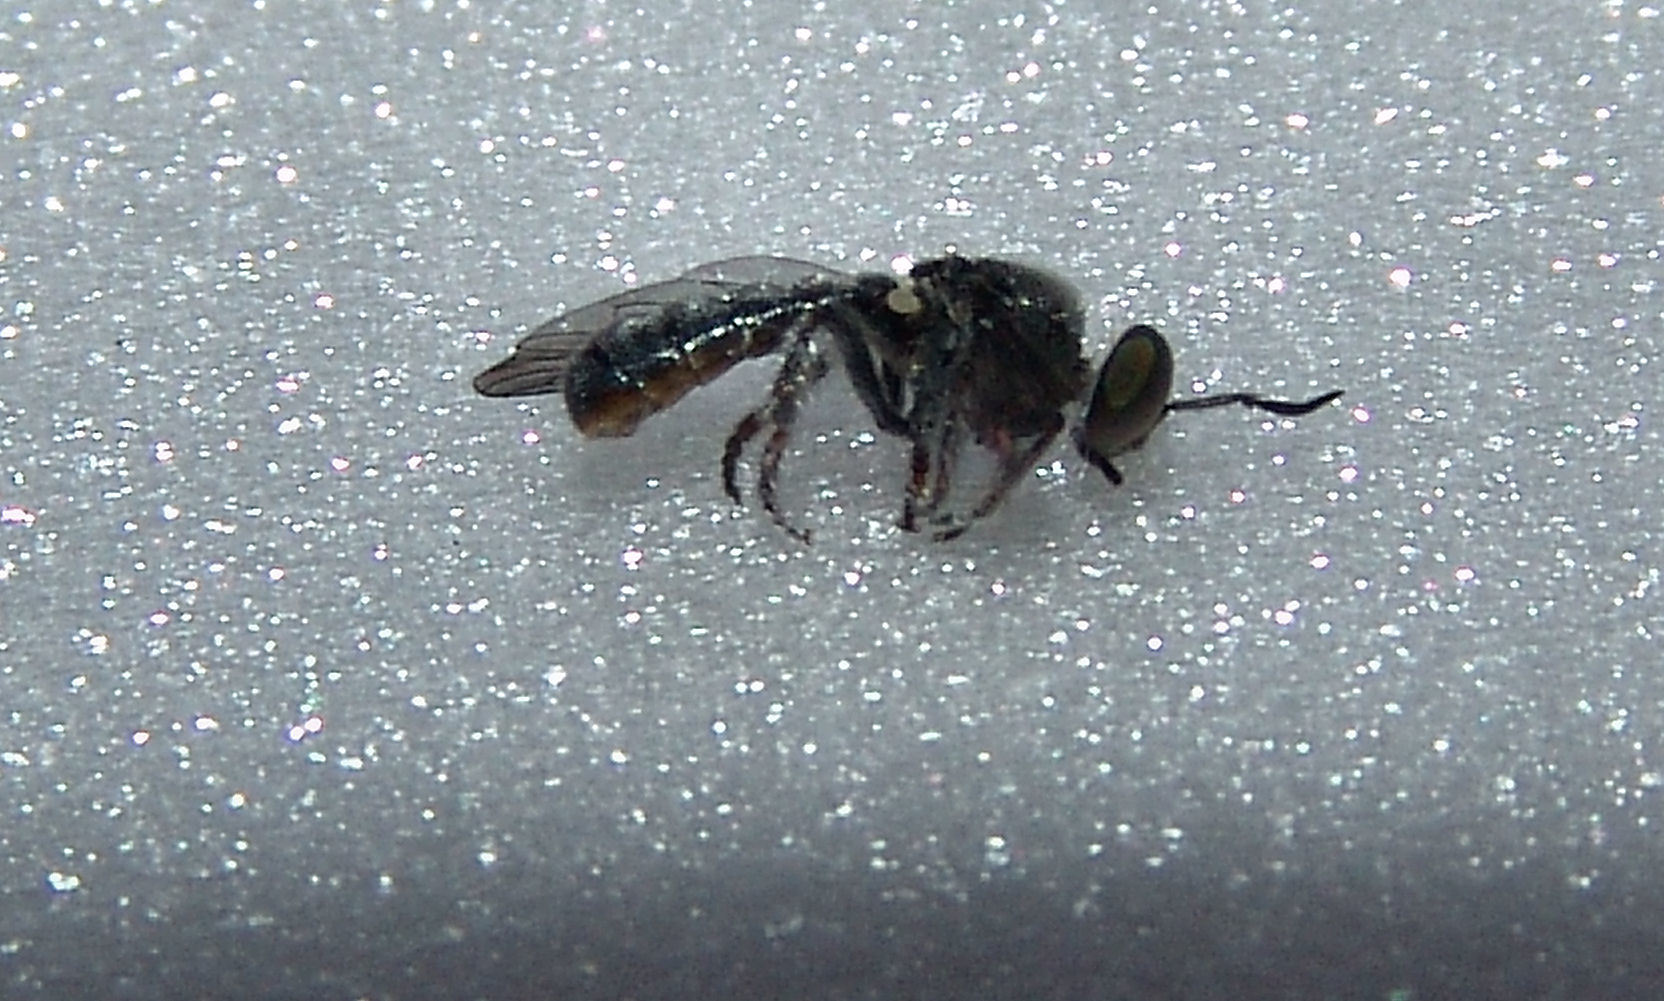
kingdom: Animalia
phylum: Arthropoda
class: Insecta
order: Diptera
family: Asilidae
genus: Cerotainia
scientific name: Cerotainia
